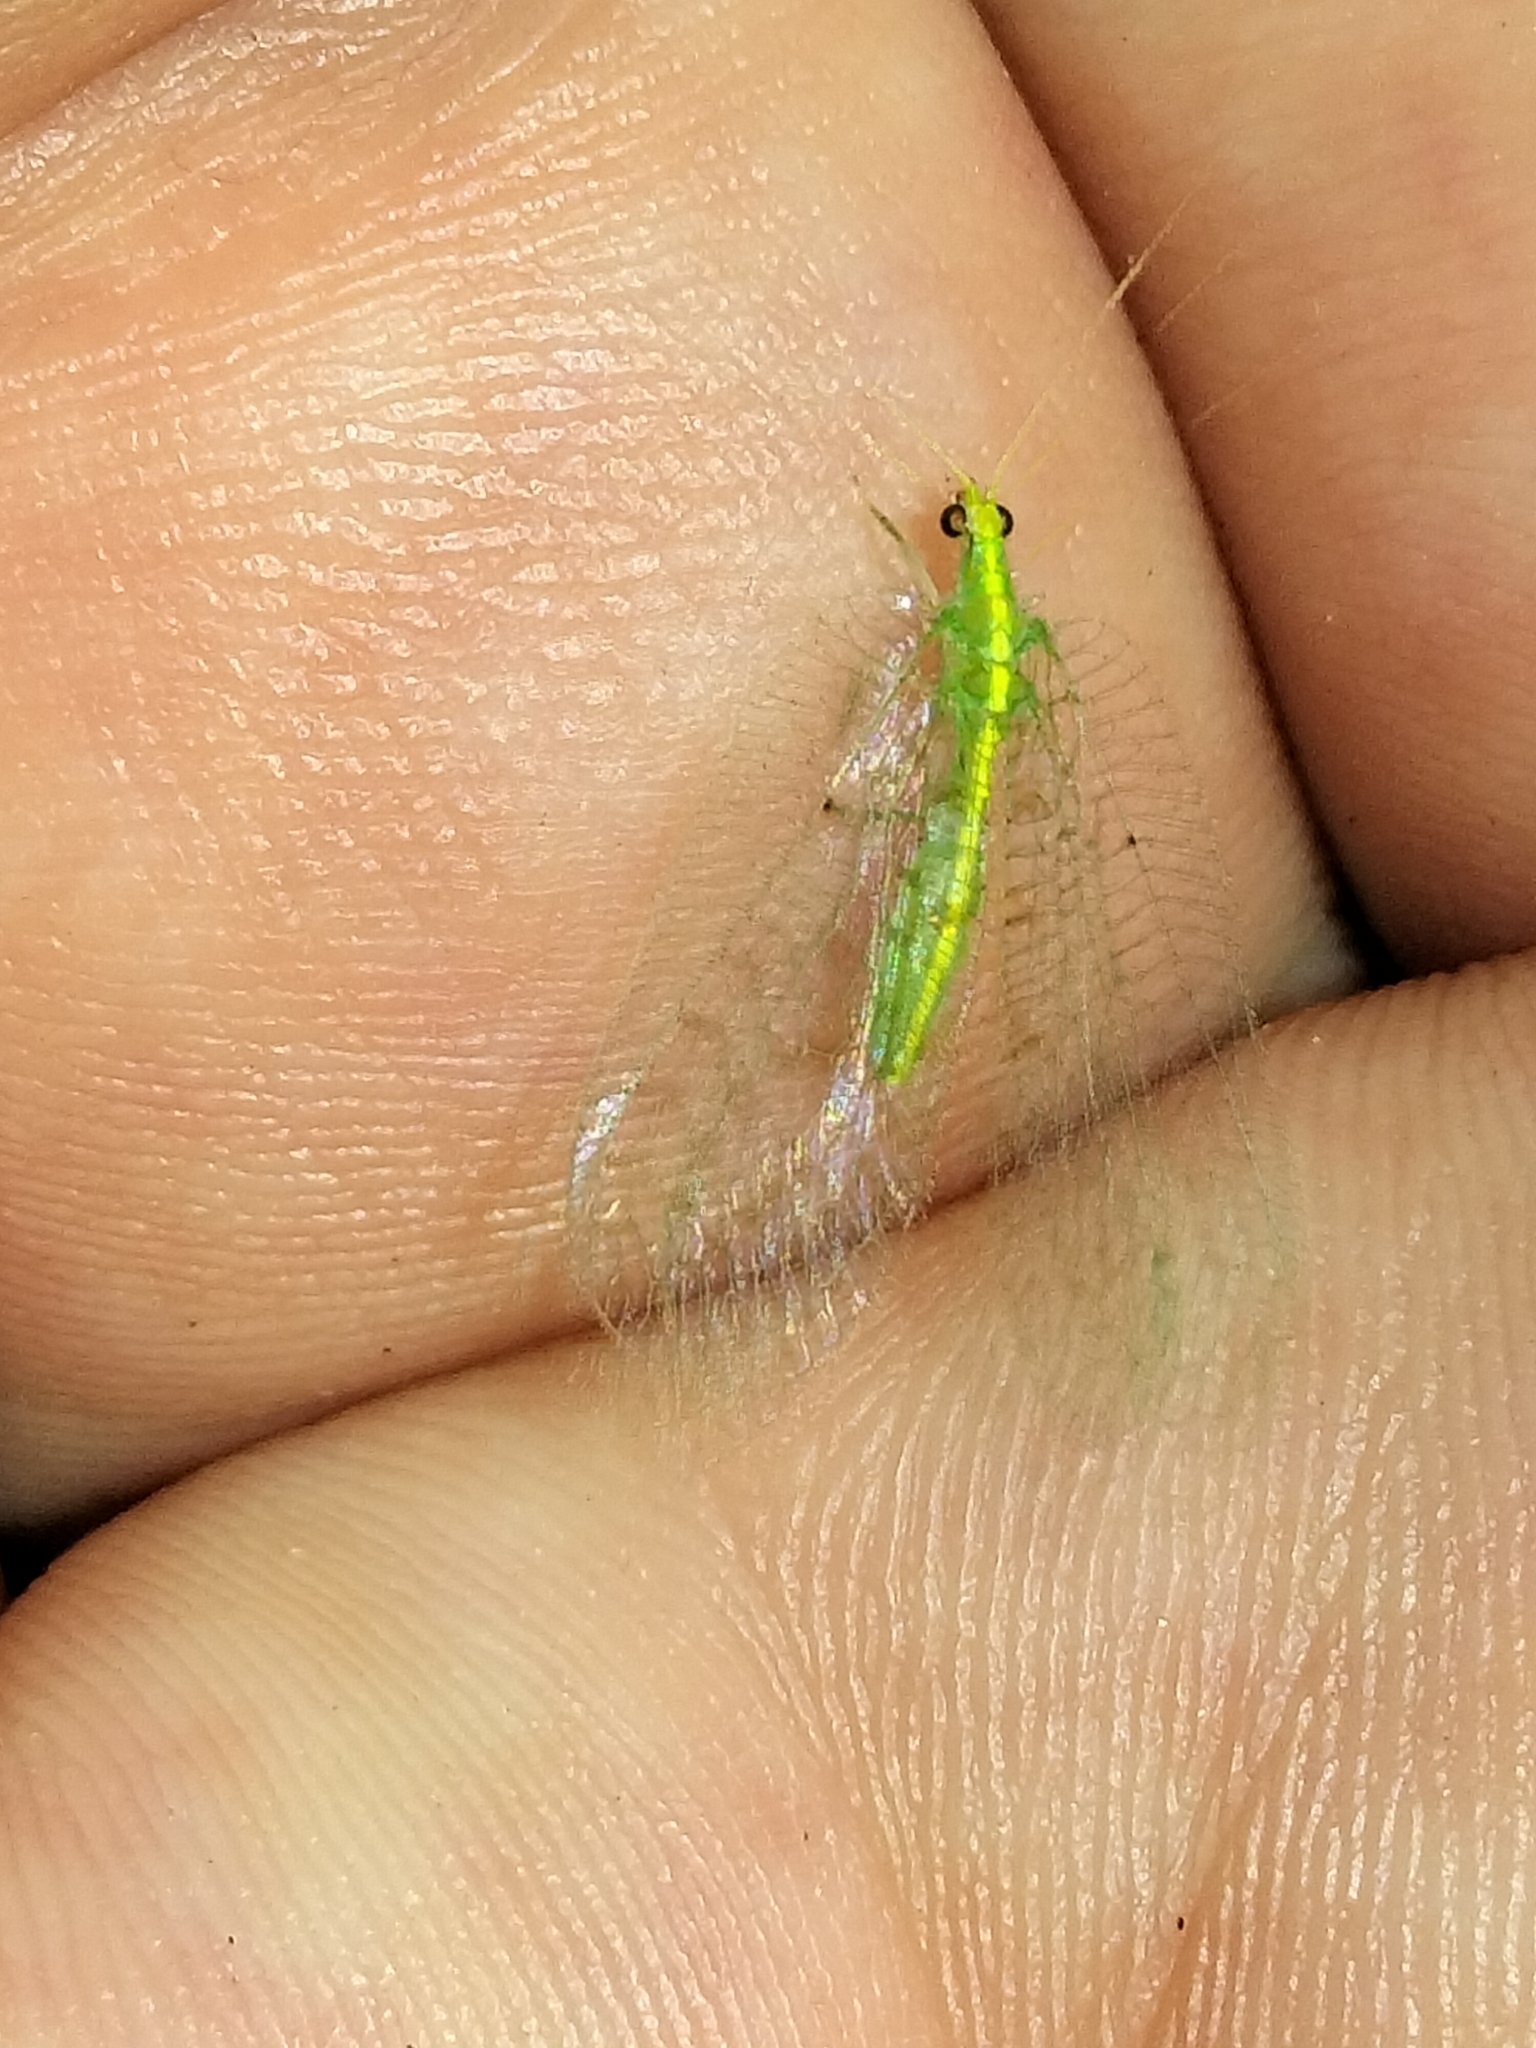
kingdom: Animalia
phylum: Arthropoda
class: Insecta
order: Neuroptera
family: Chrysopidae
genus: Ankylopteryx
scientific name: Ankylopteryx rieki
